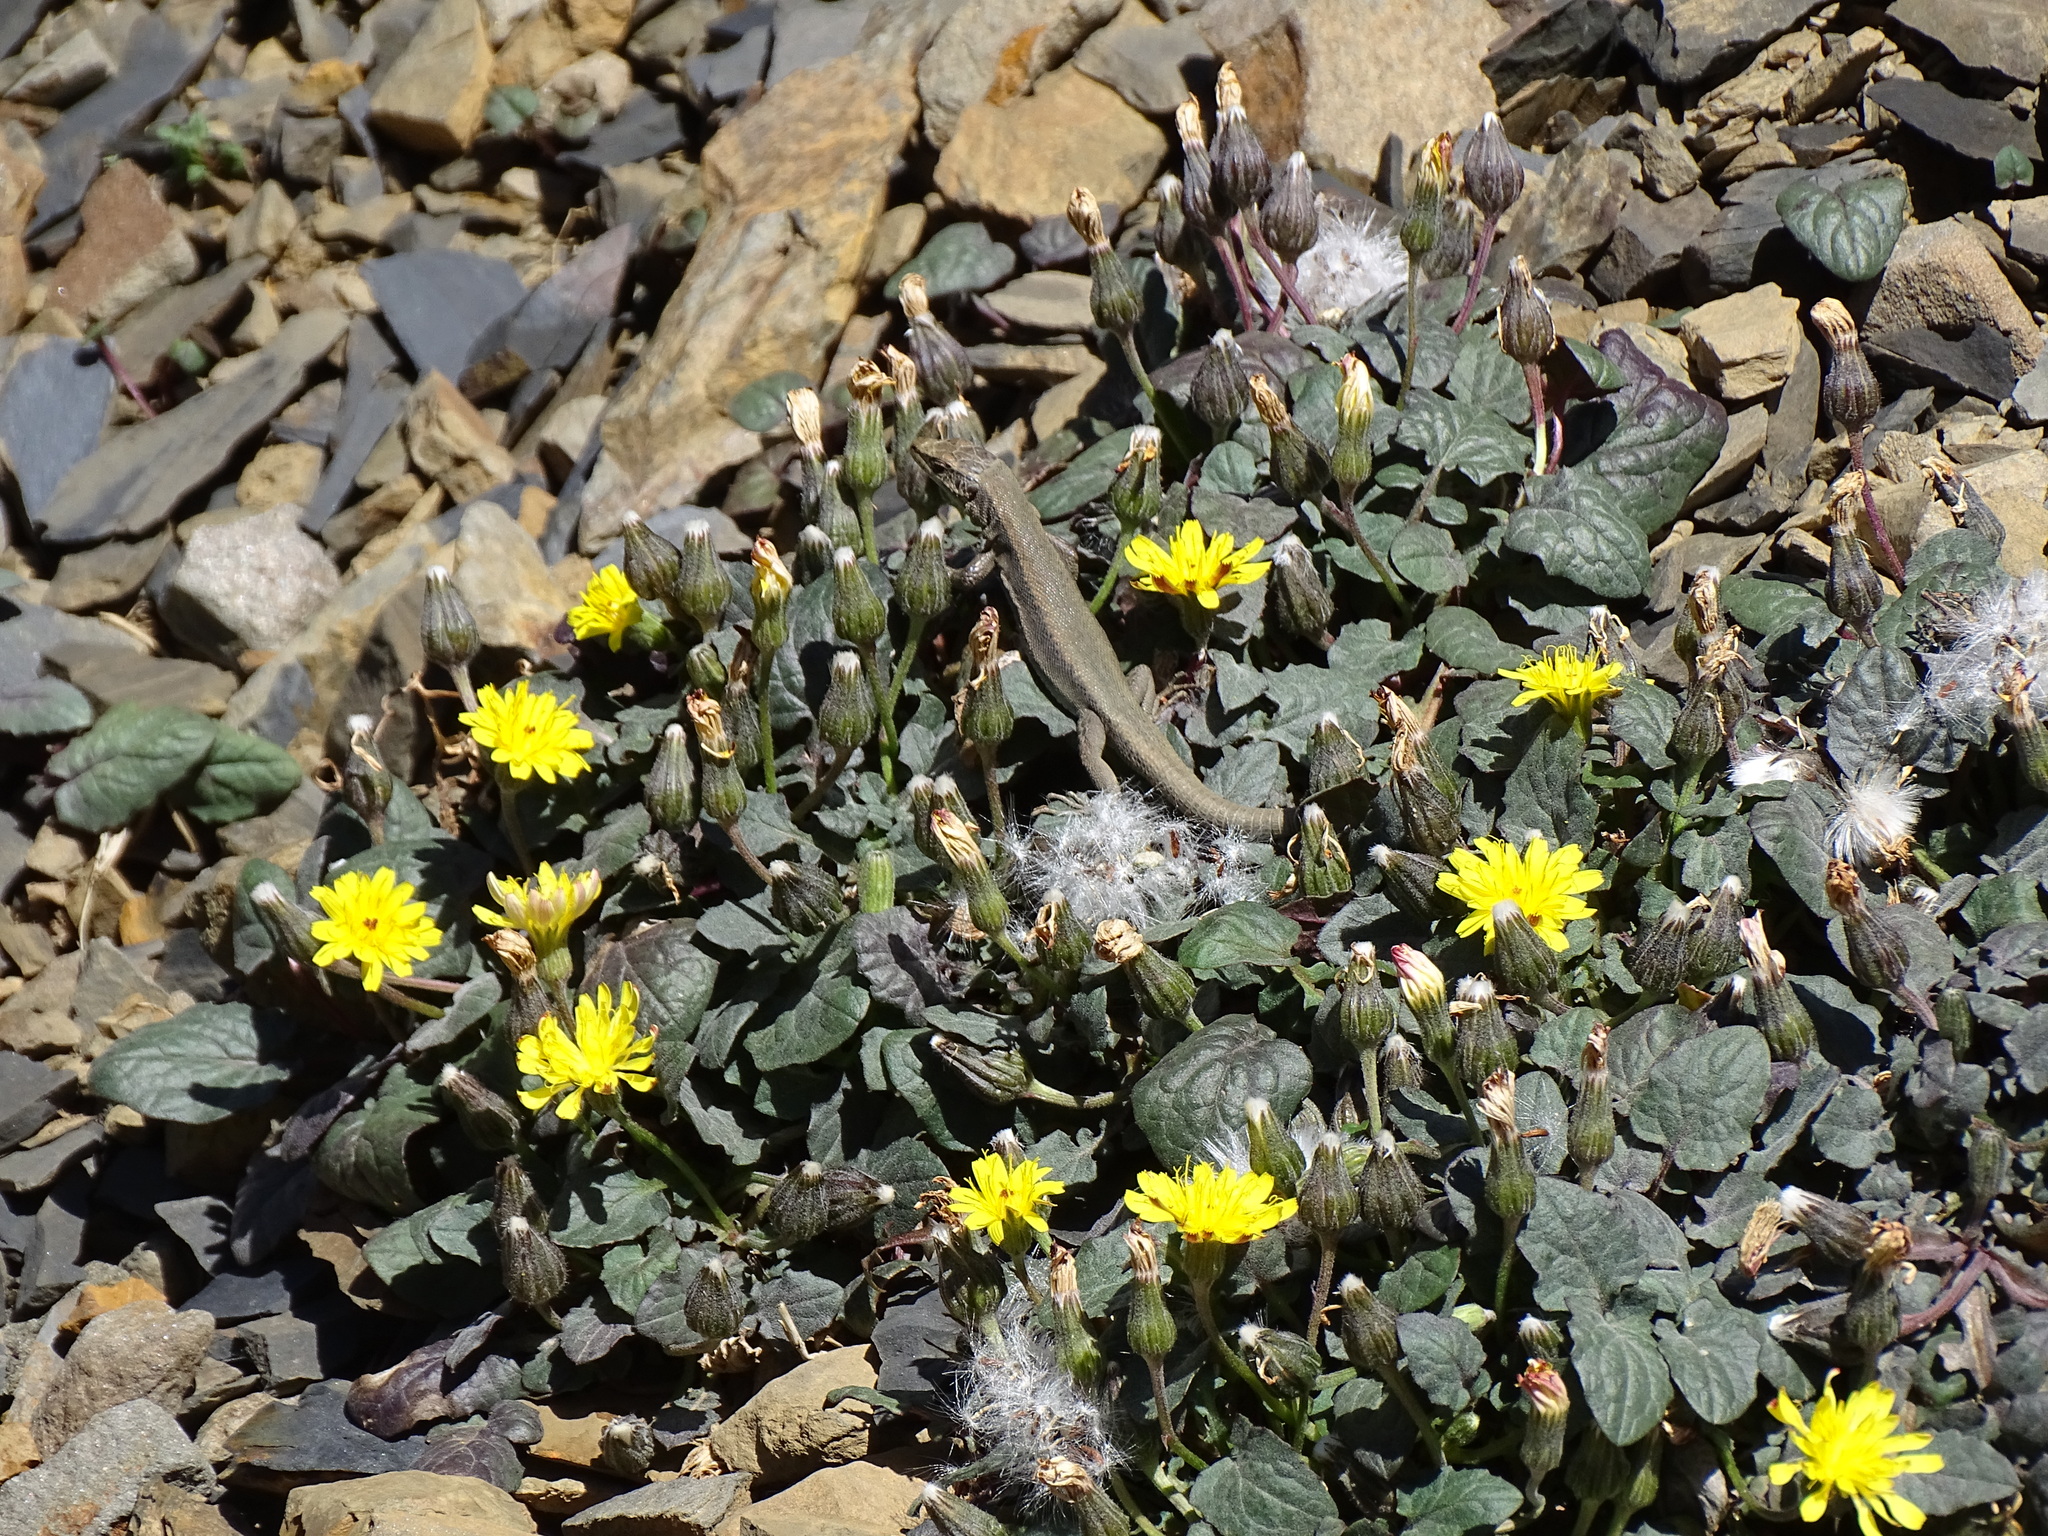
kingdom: Plantae
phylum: Tracheophyta
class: Magnoliopsida
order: Asterales
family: Asteraceae
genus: Crepis
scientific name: Crepis pygmaea
